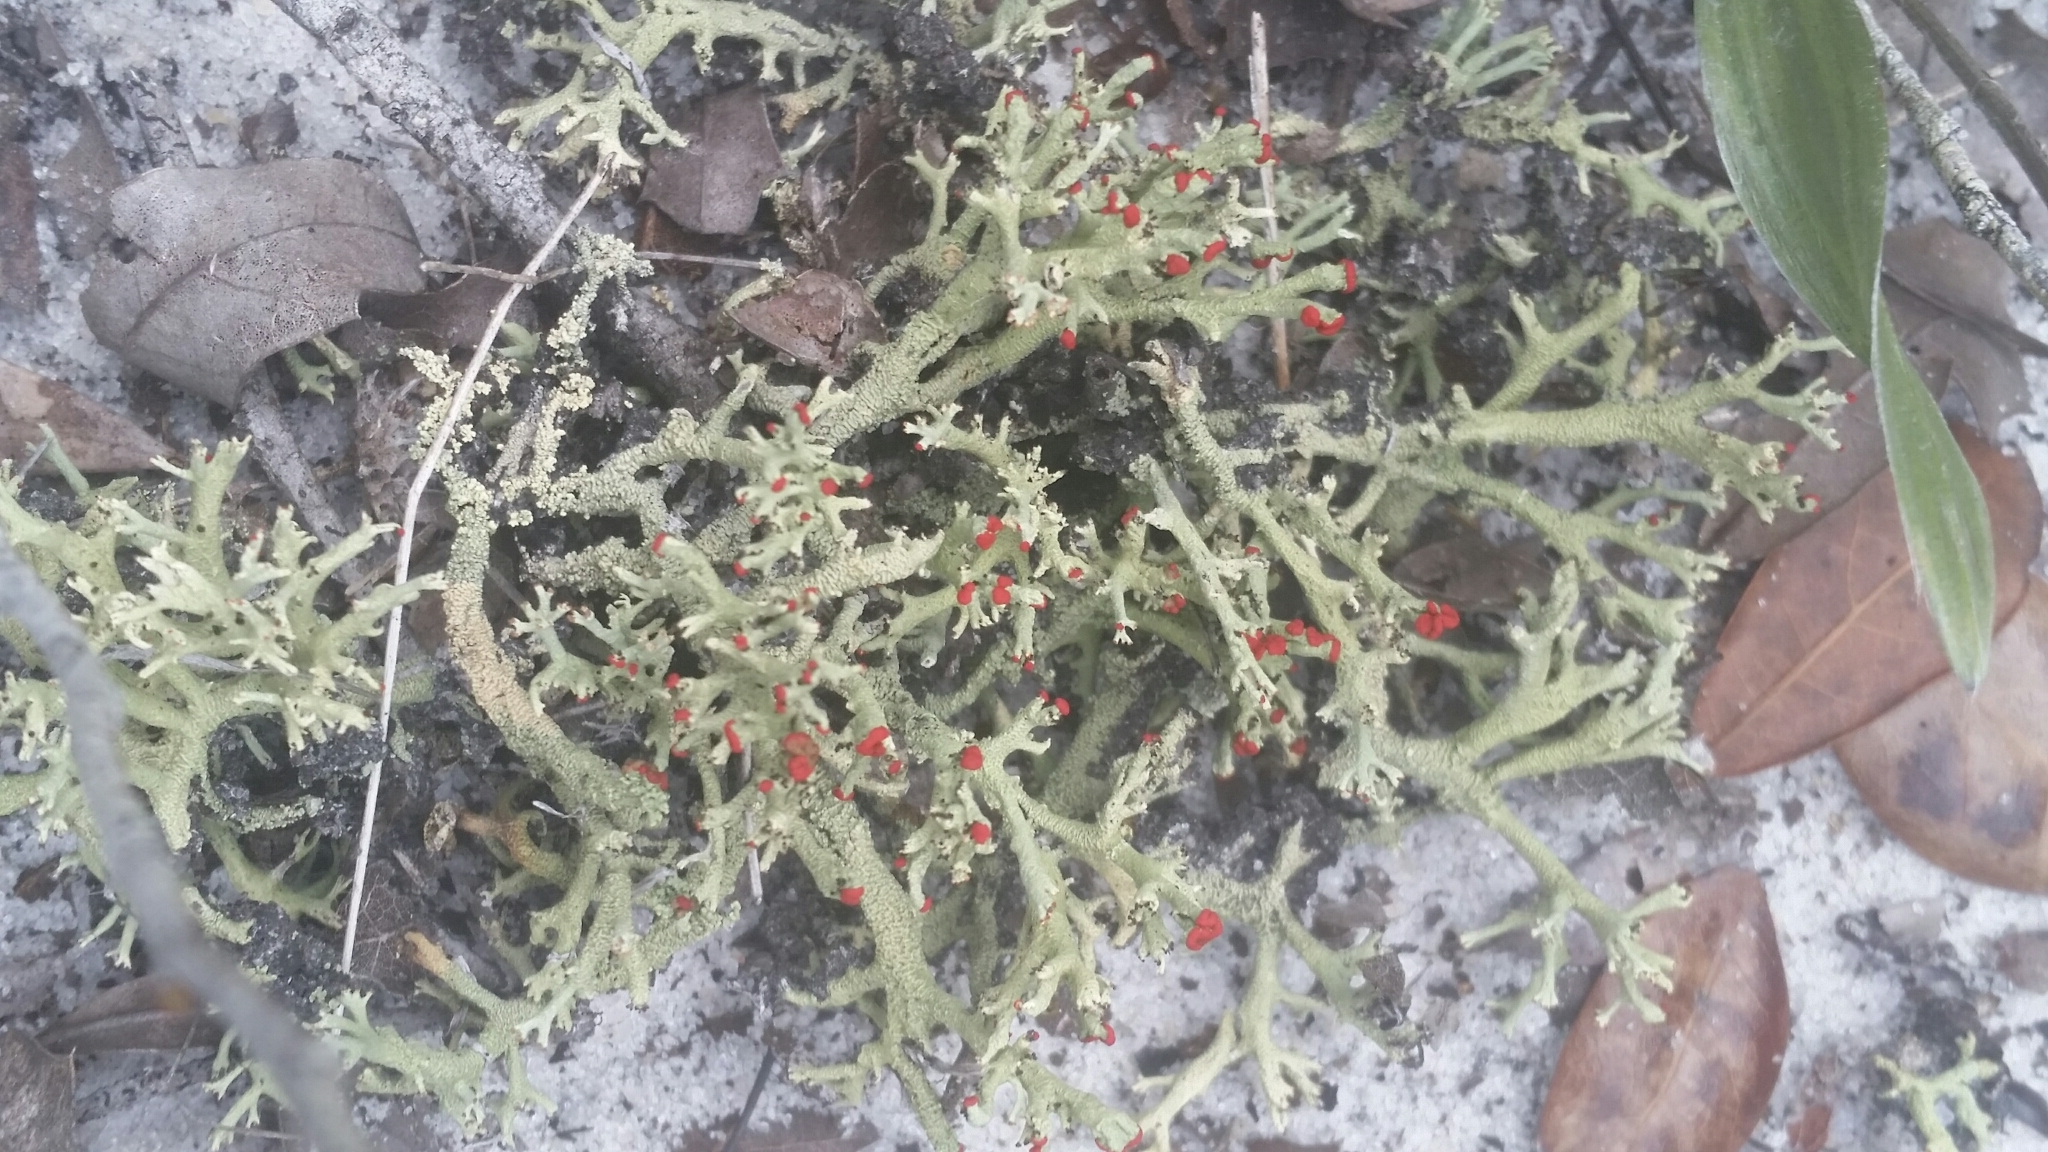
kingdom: Fungi
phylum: Ascomycota
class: Lecanoromycetes
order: Lecanorales
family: Cladoniaceae
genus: Cladonia
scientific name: Cladonia leporina
